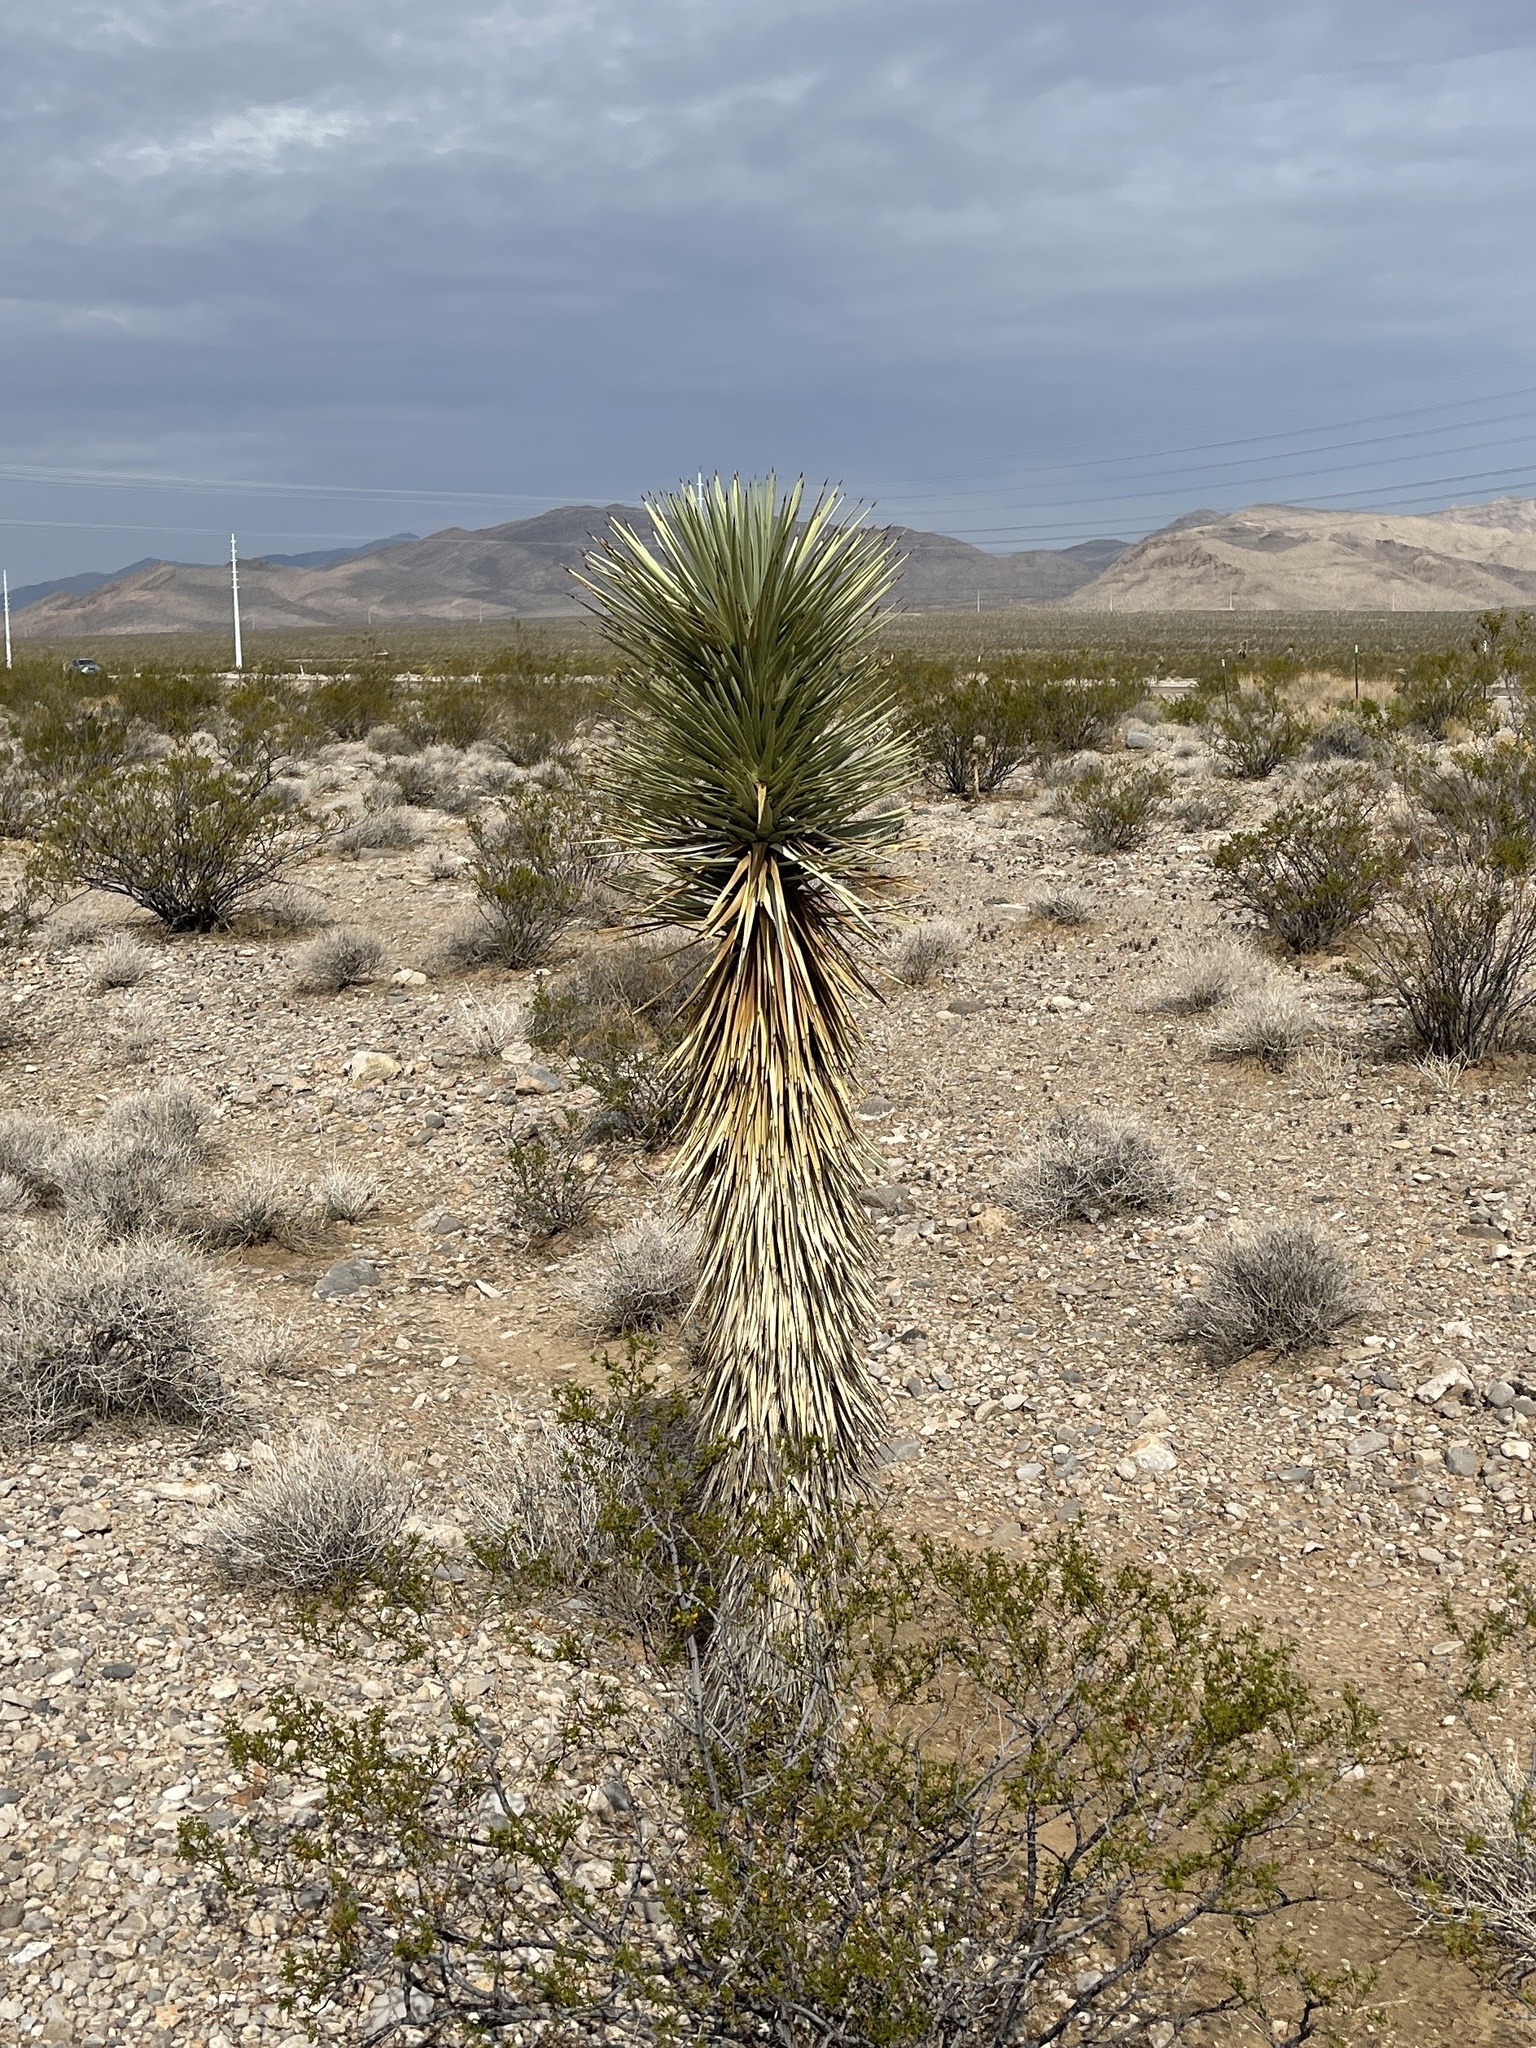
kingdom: Plantae
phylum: Tracheophyta
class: Liliopsida
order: Asparagales
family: Asparagaceae
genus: Yucca
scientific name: Yucca brevifolia
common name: Joshua tree
